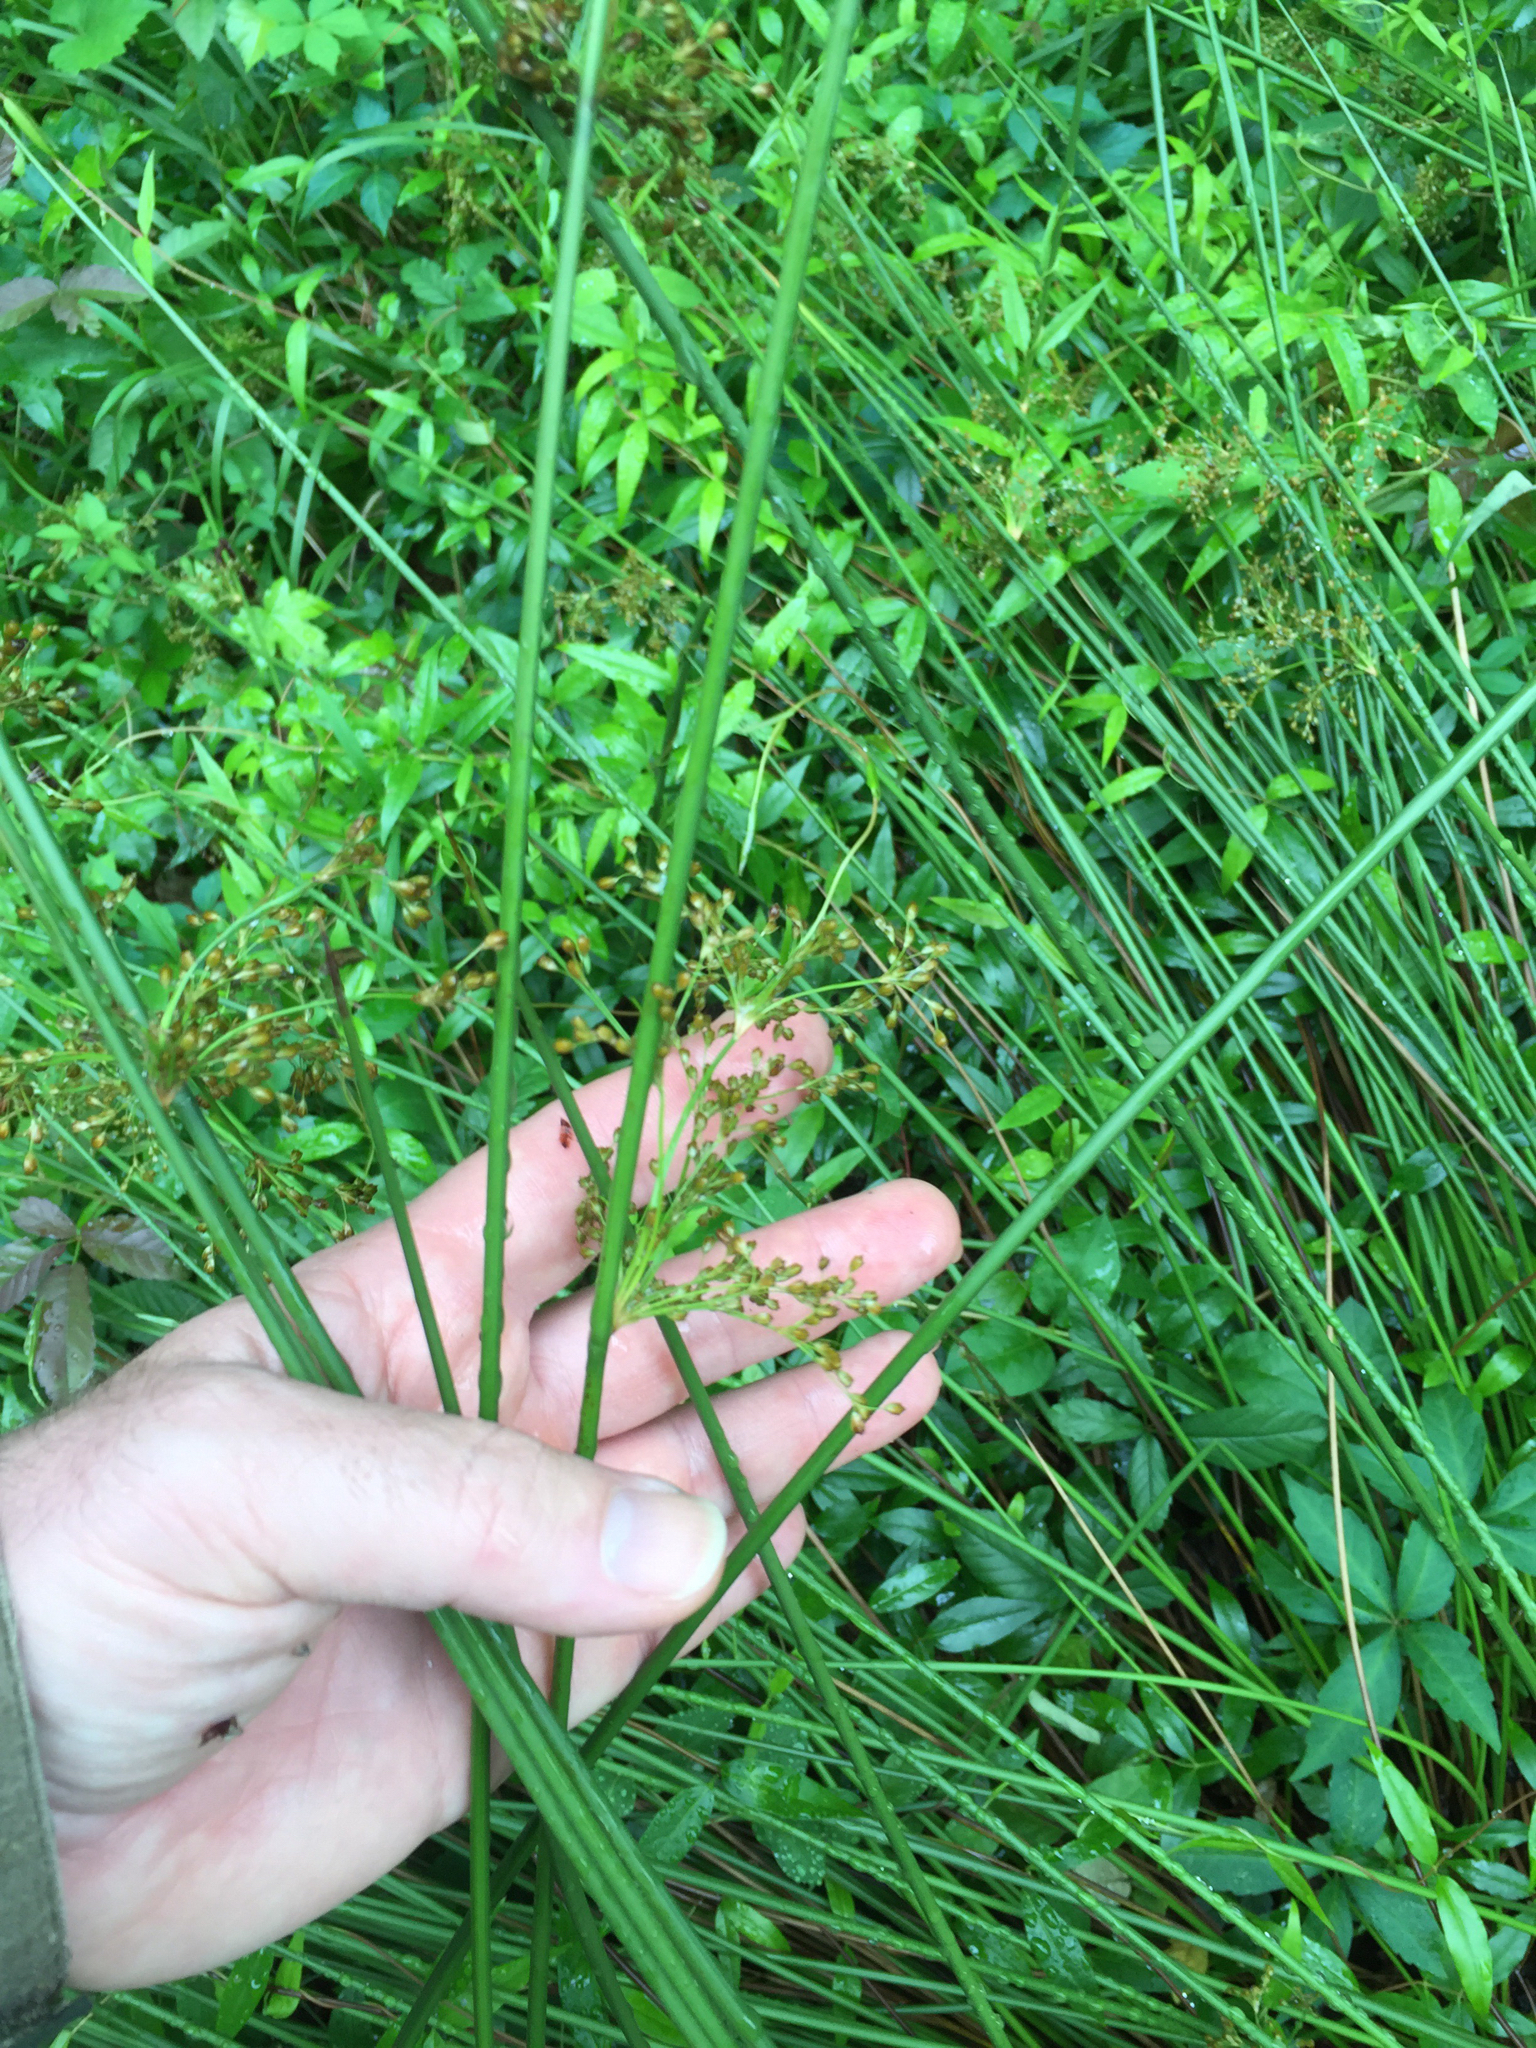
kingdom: Plantae
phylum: Tracheophyta
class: Liliopsida
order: Poales
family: Juncaceae
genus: Juncus
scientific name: Juncus effusus
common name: Soft rush
